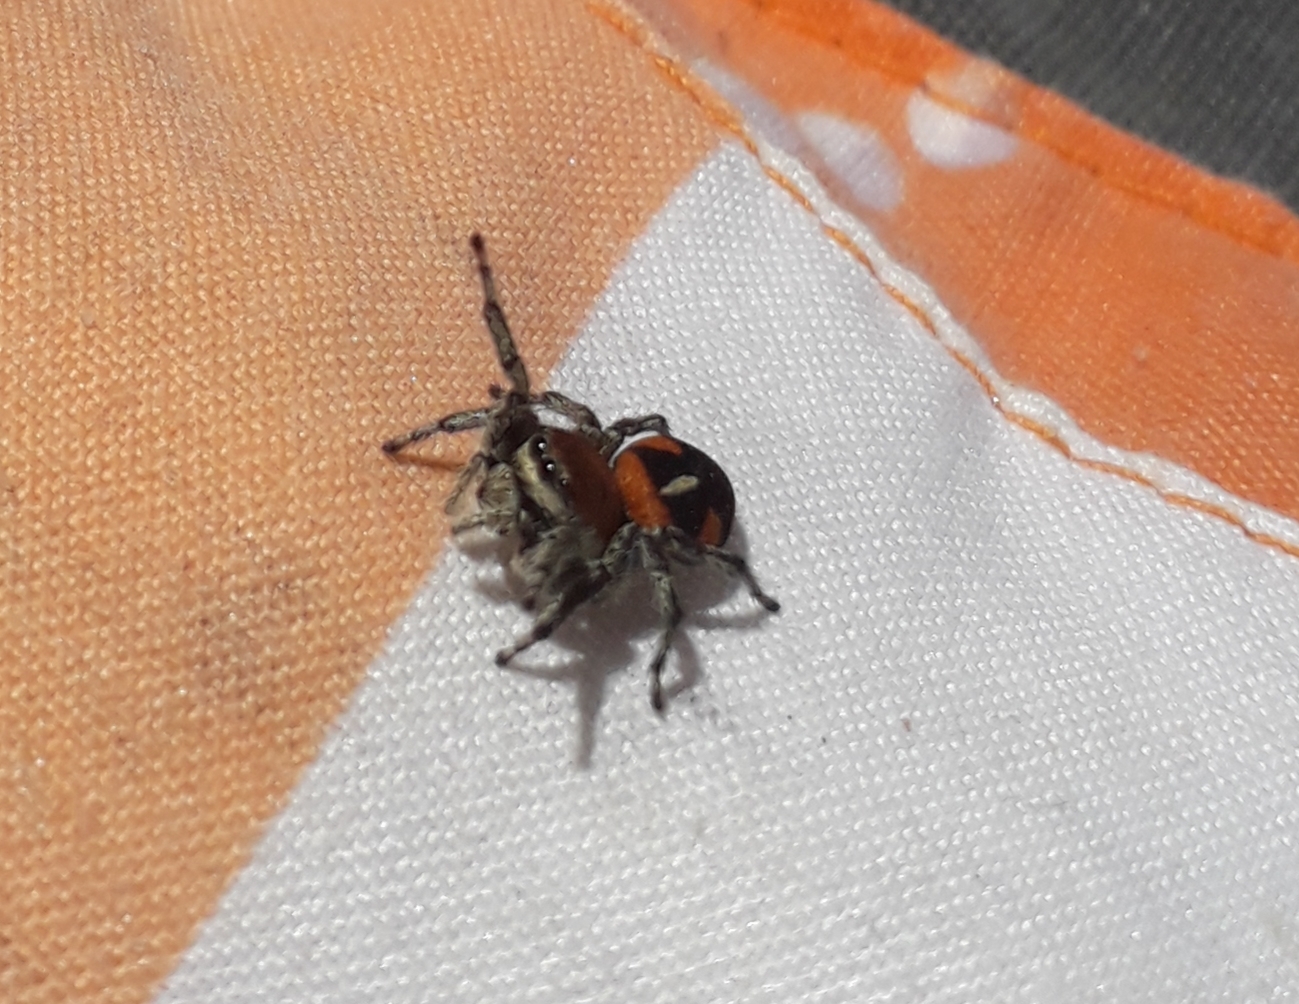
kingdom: Animalia
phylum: Arthropoda
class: Arachnida
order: Araneae
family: Salticidae
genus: Phiale
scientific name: Phiale roburifoliata
